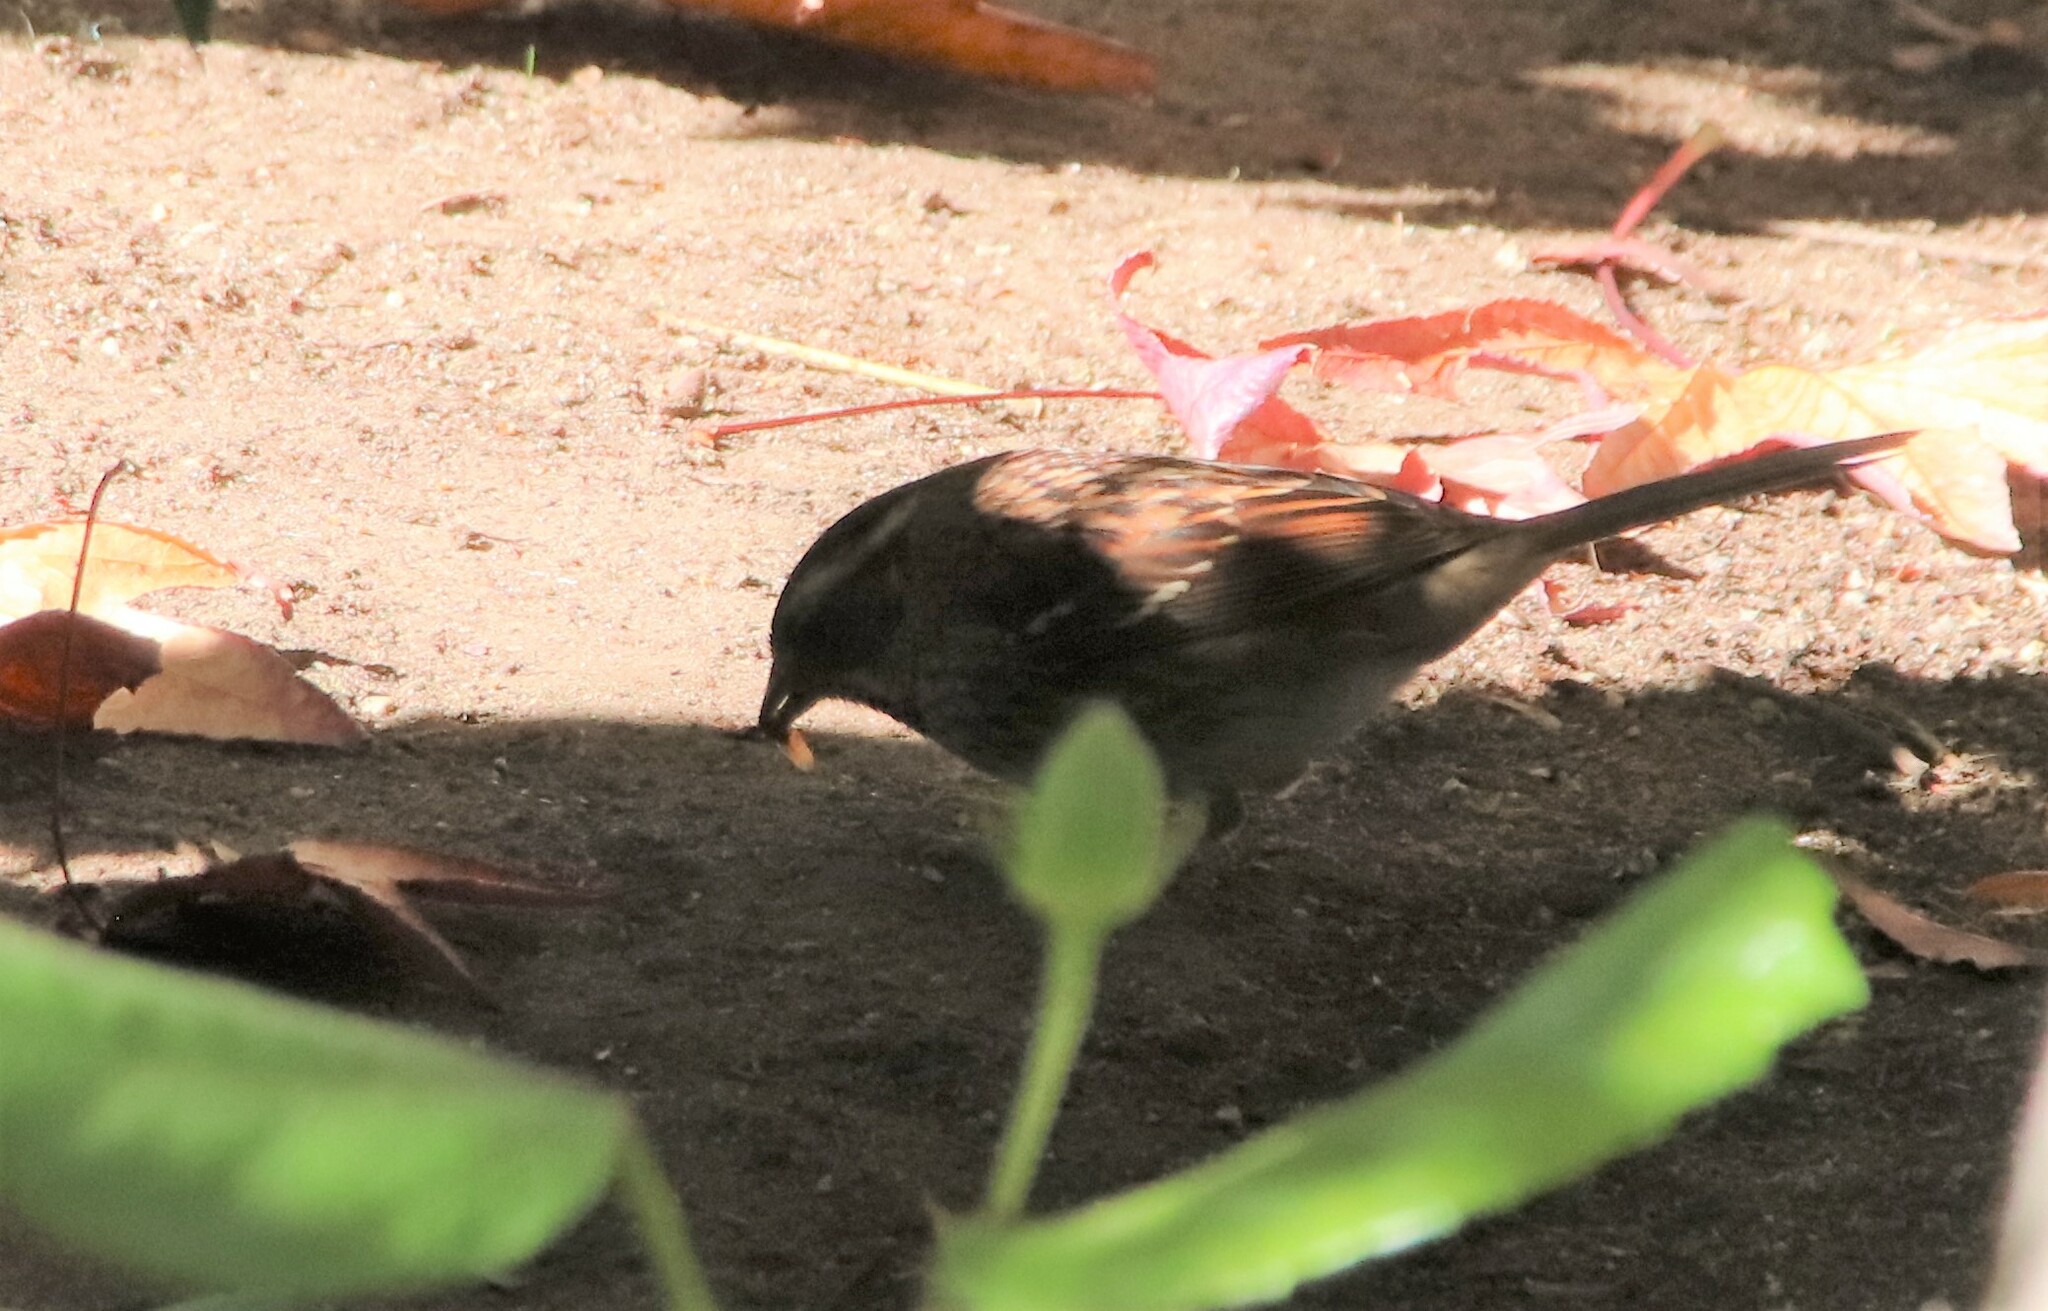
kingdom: Animalia
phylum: Chordata
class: Aves
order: Passeriformes
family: Passerellidae
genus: Zonotrichia
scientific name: Zonotrichia albicollis
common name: White-throated sparrow
